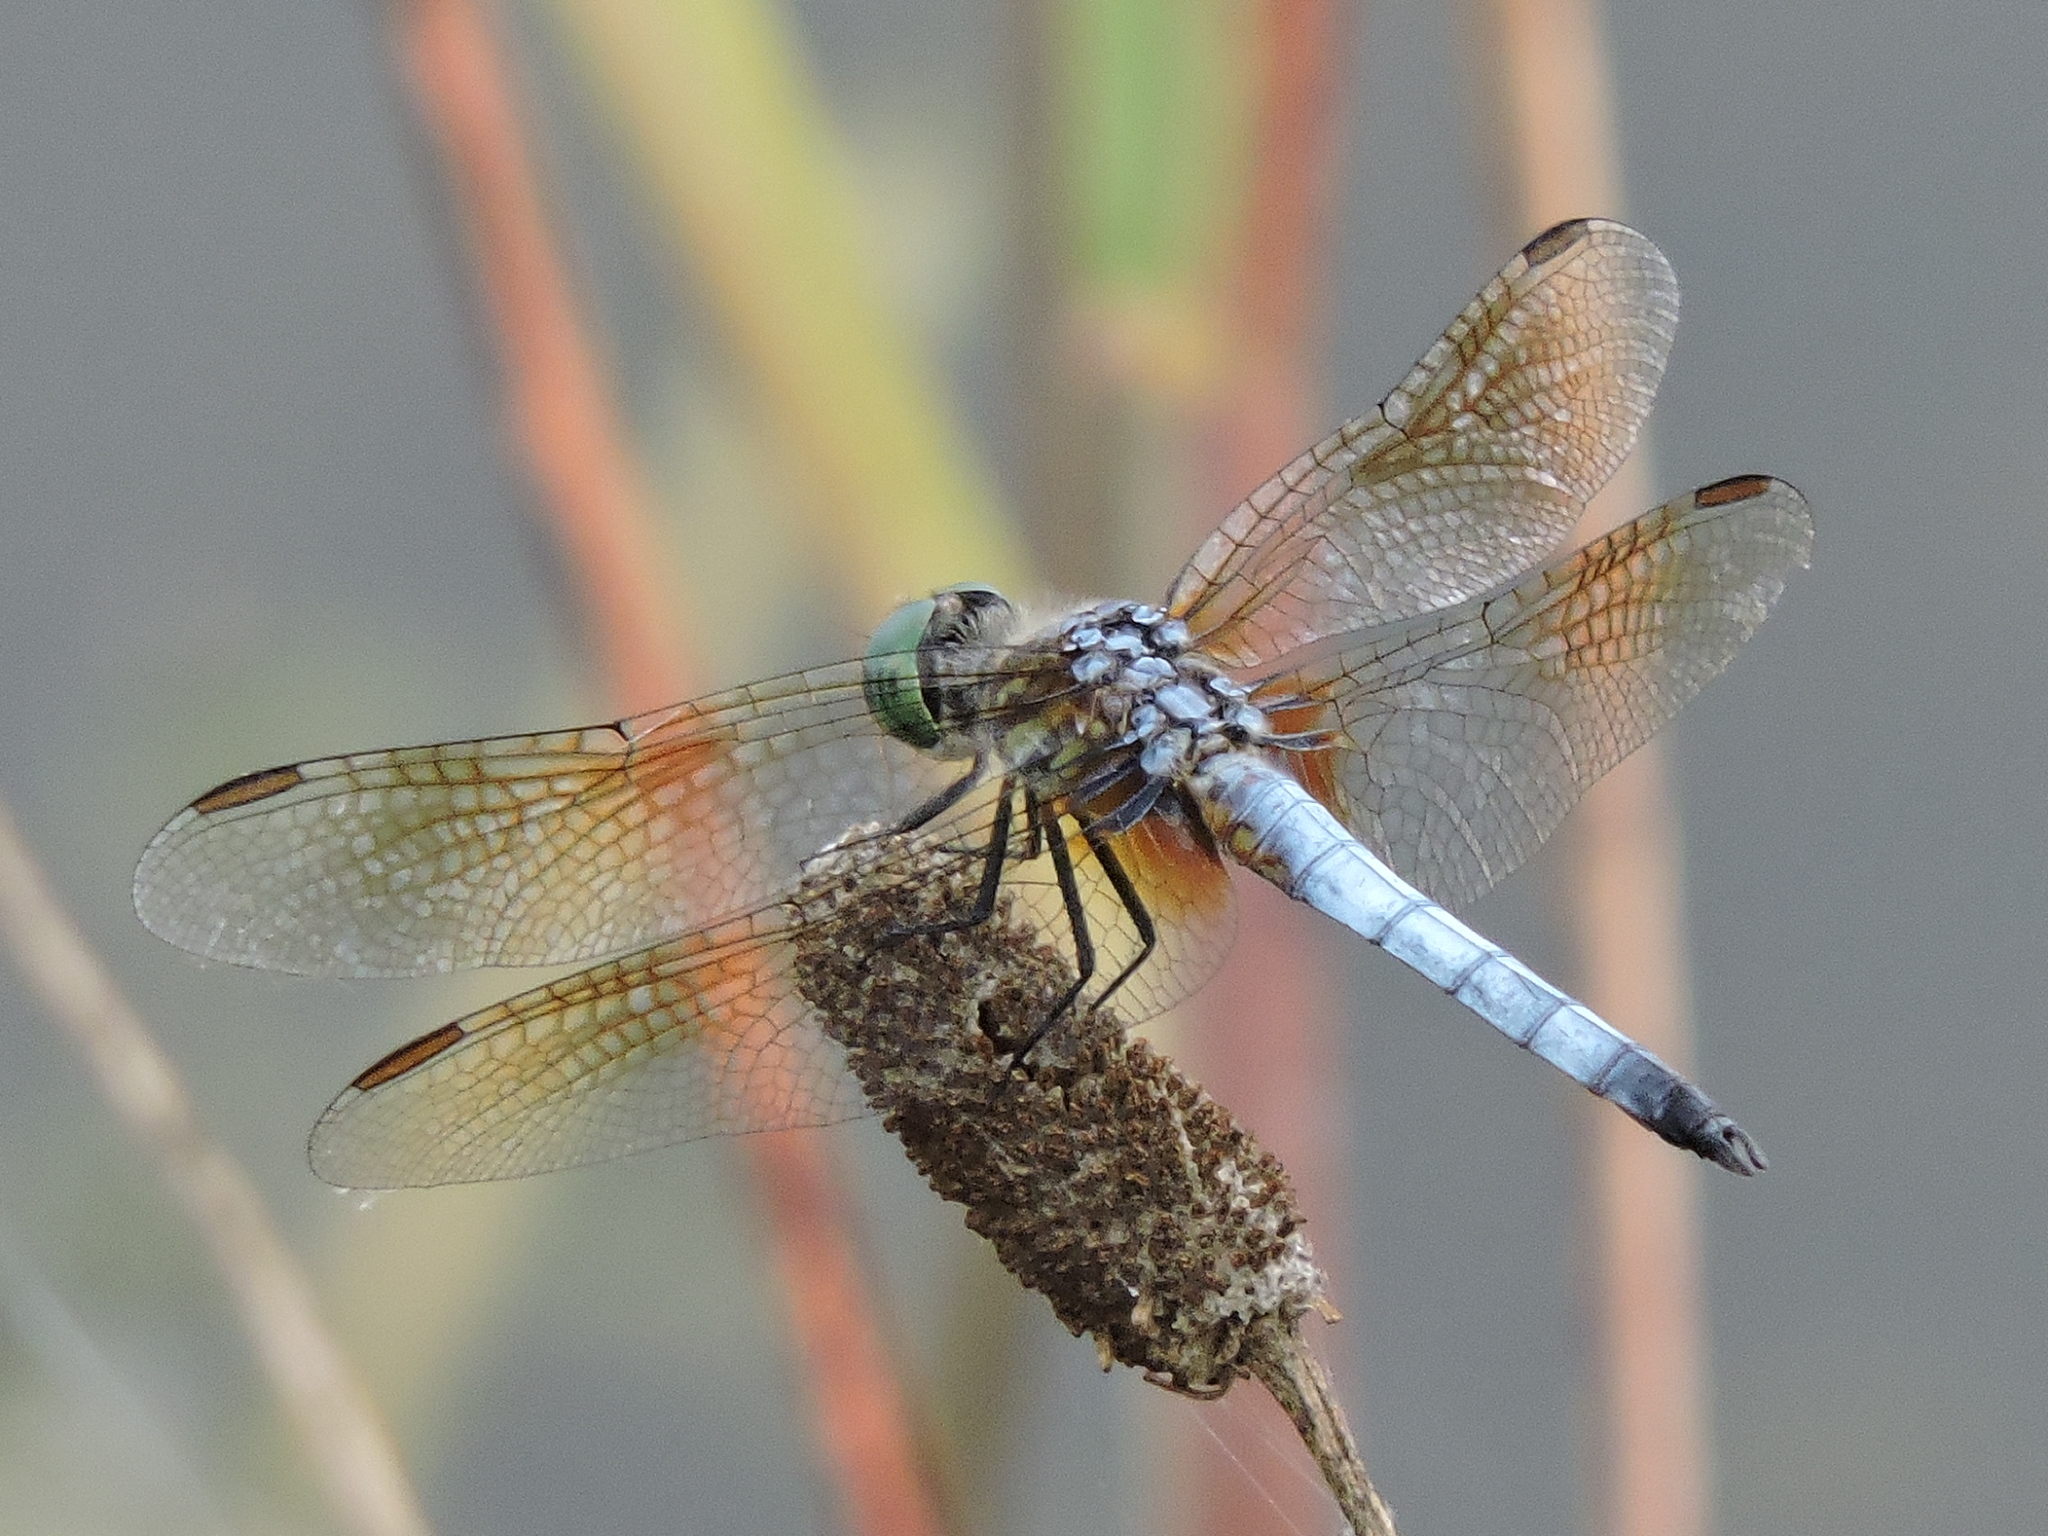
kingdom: Animalia
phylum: Arthropoda
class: Insecta
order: Odonata
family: Libellulidae
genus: Pachydiplax
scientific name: Pachydiplax longipennis
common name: Blue dasher
